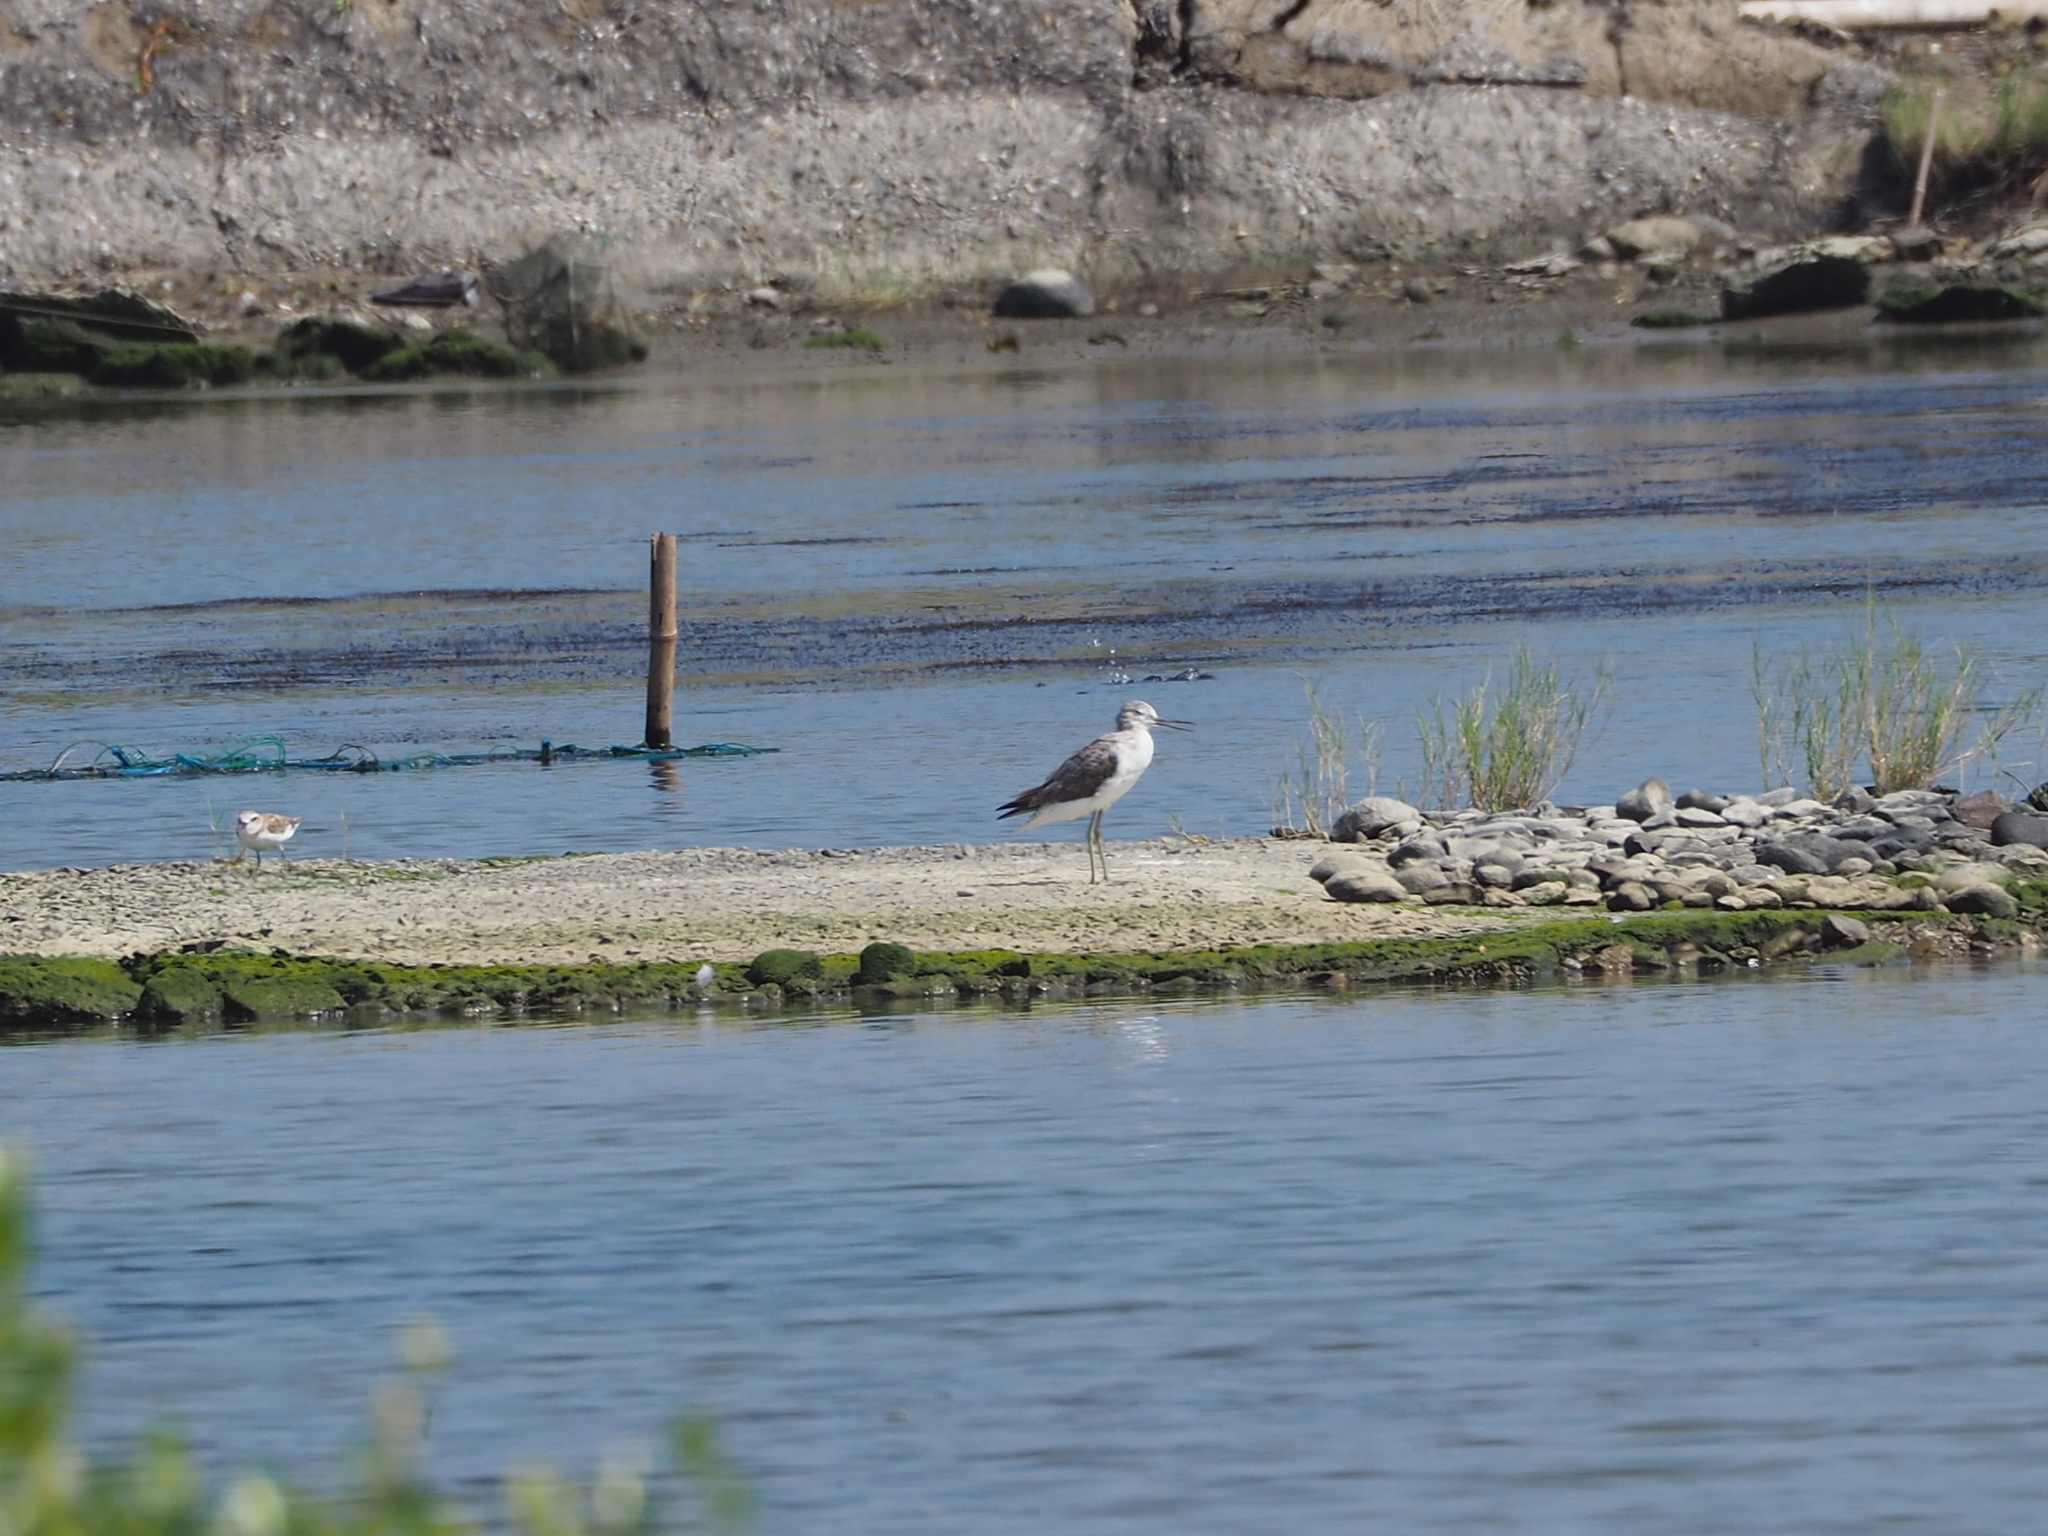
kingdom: Animalia
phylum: Chordata
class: Aves
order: Charadriiformes
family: Scolopacidae
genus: Tringa
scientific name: Tringa nebularia
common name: Common greenshank
